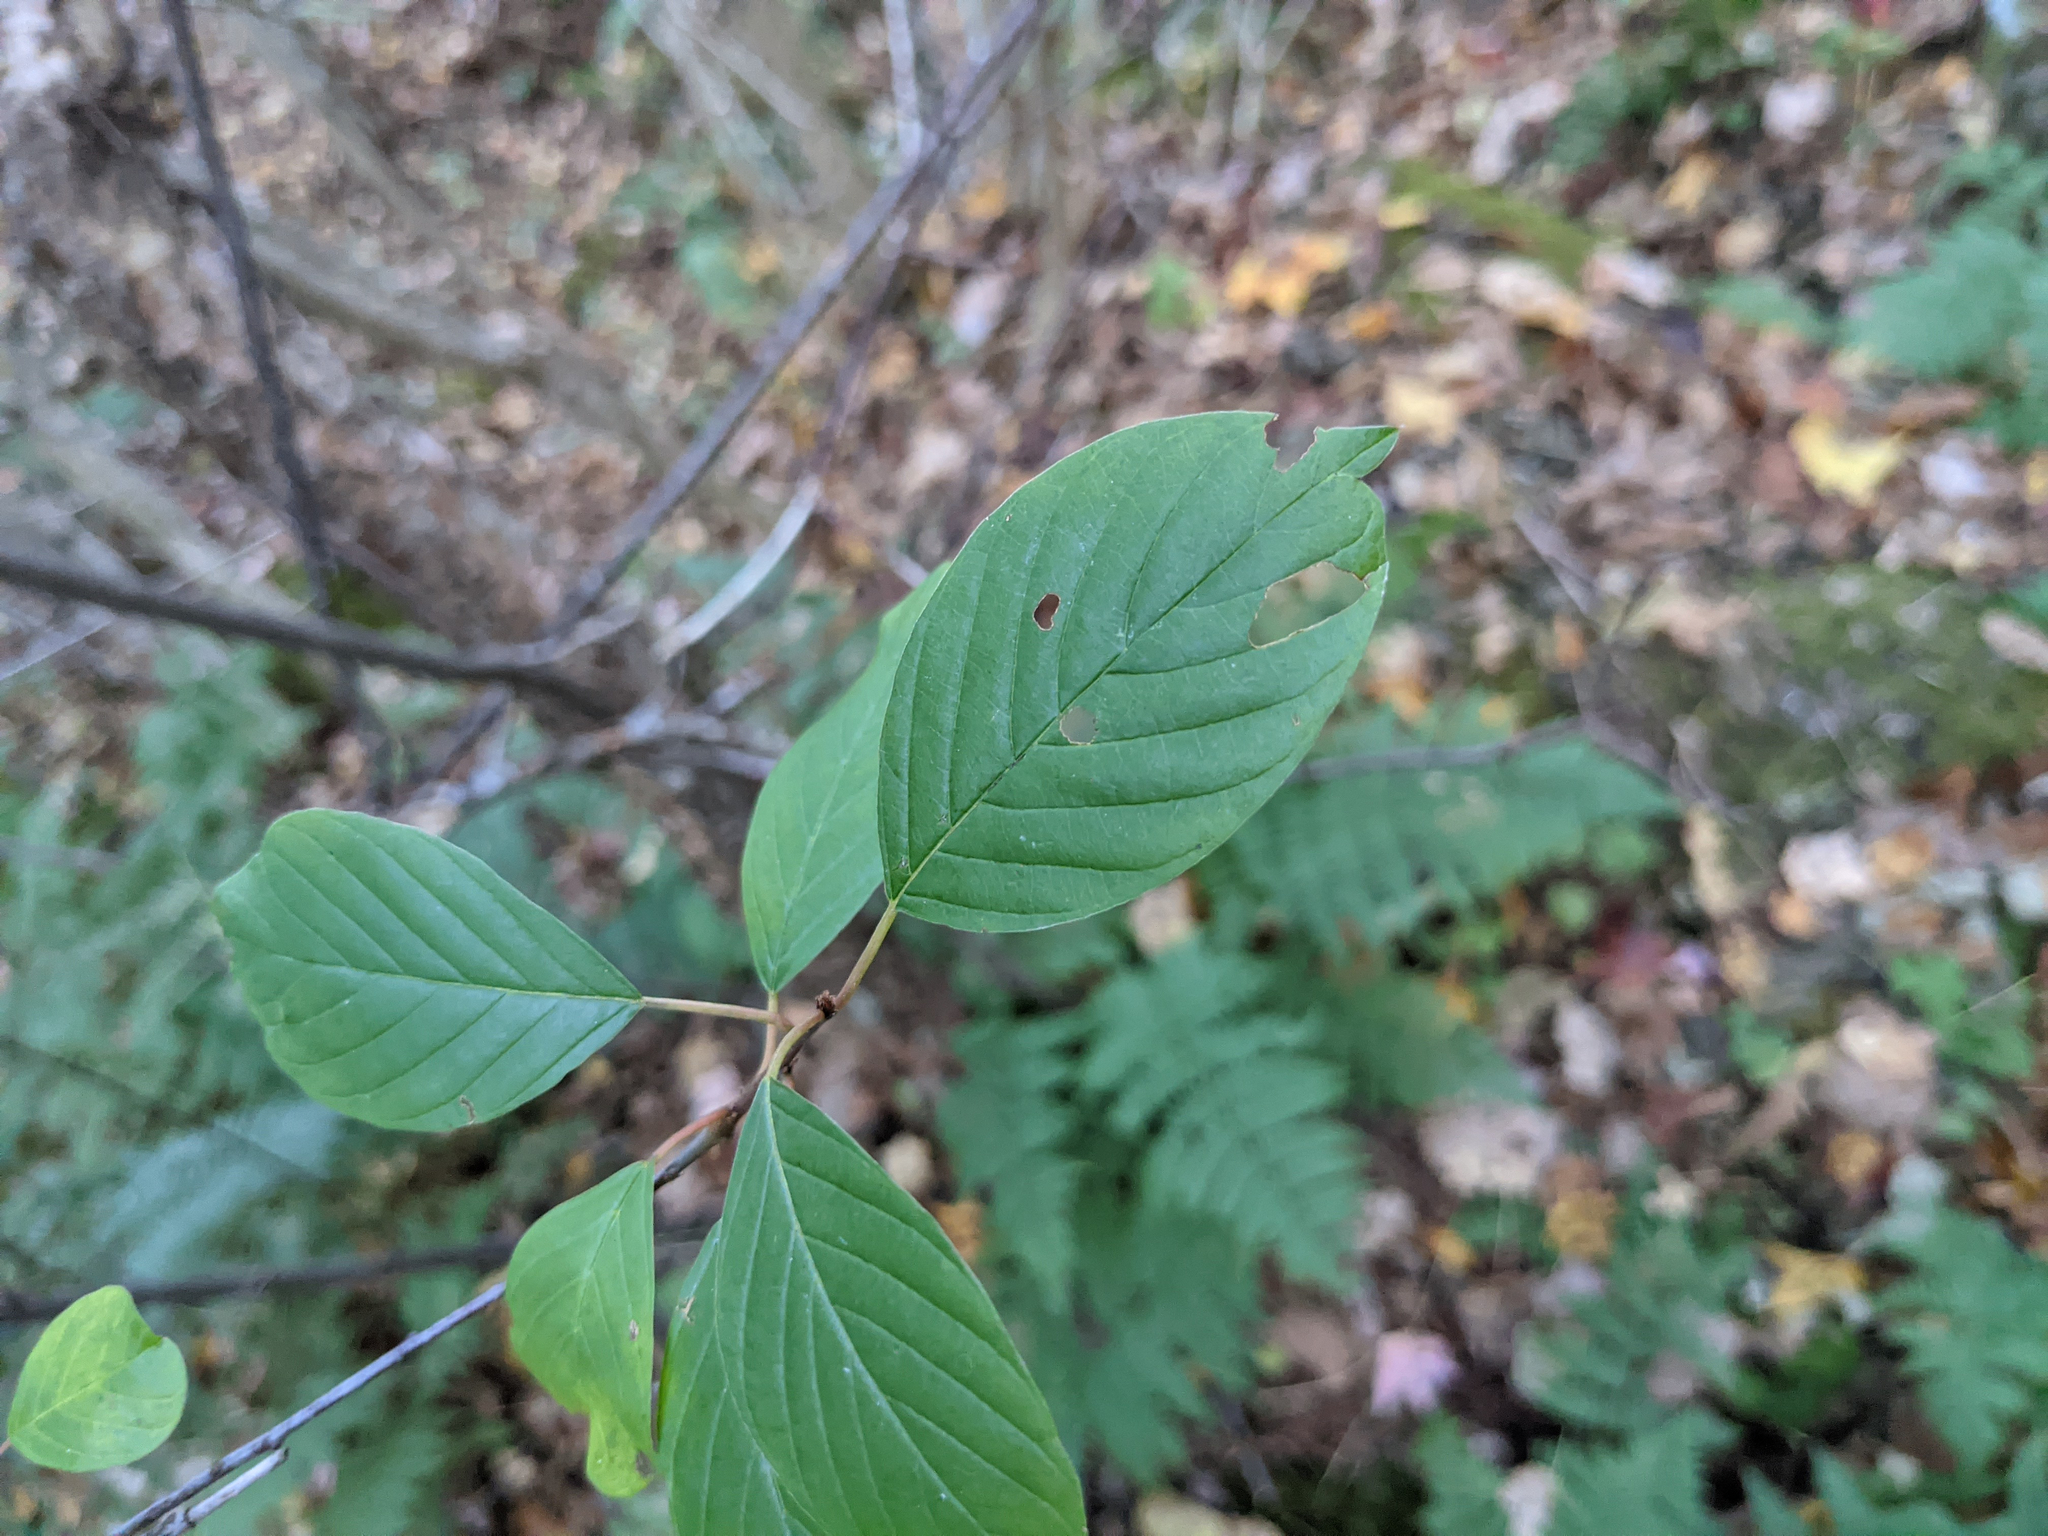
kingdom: Plantae
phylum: Tracheophyta
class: Magnoliopsida
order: Rosales
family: Rhamnaceae
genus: Frangula
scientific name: Frangula alnus
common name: Alder buckthorn
